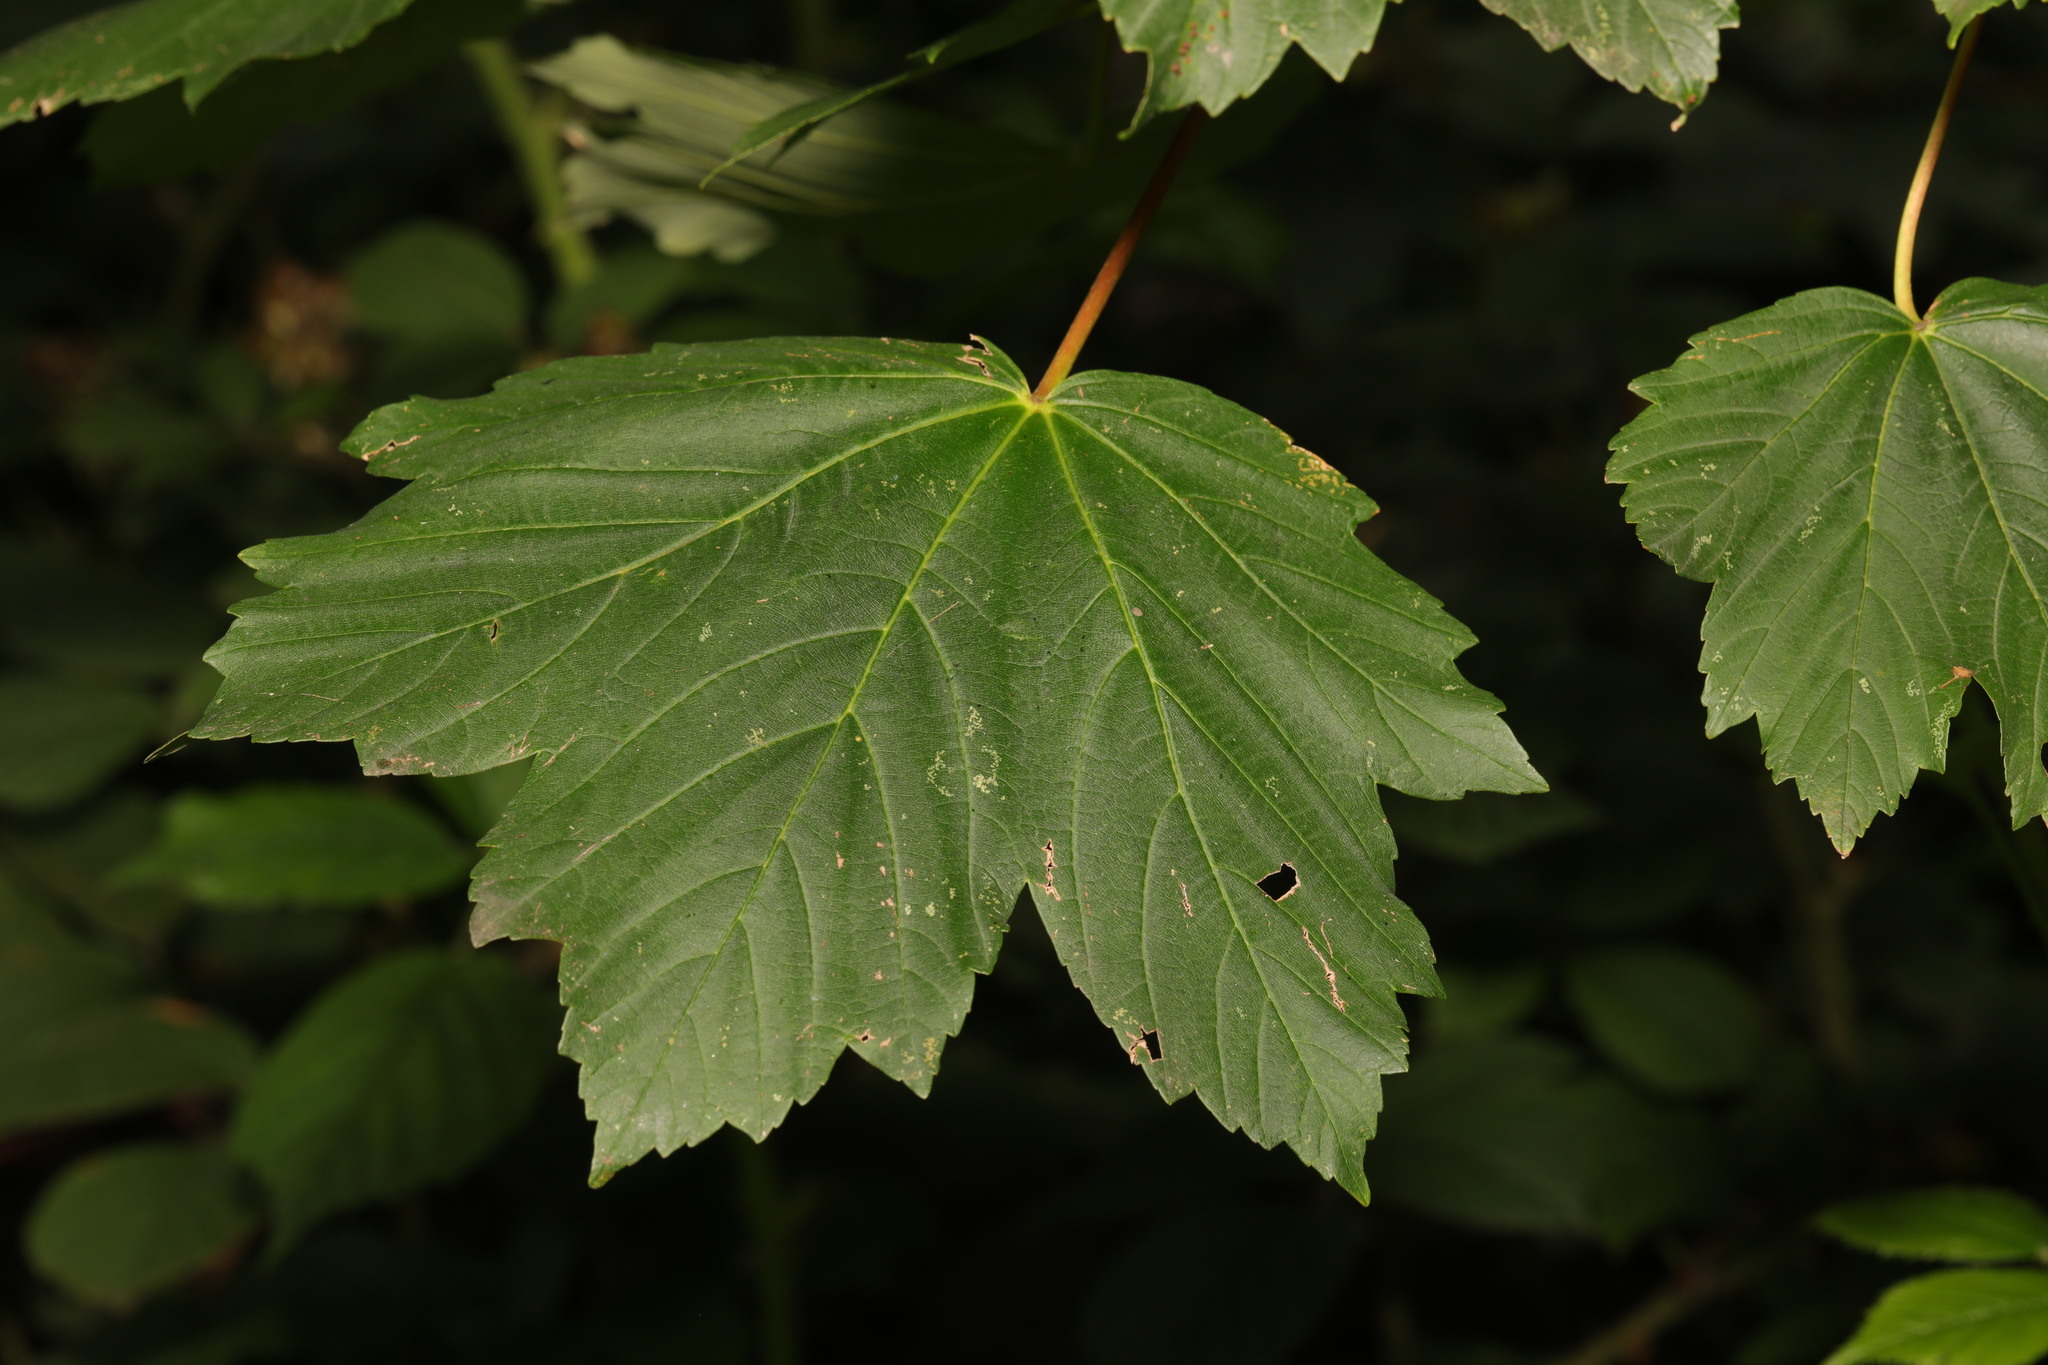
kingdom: Plantae
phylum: Tracheophyta
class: Magnoliopsida
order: Sapindales
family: Sapindaceae
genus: Acer
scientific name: Acer pseudoplatanus
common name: Sycamore
